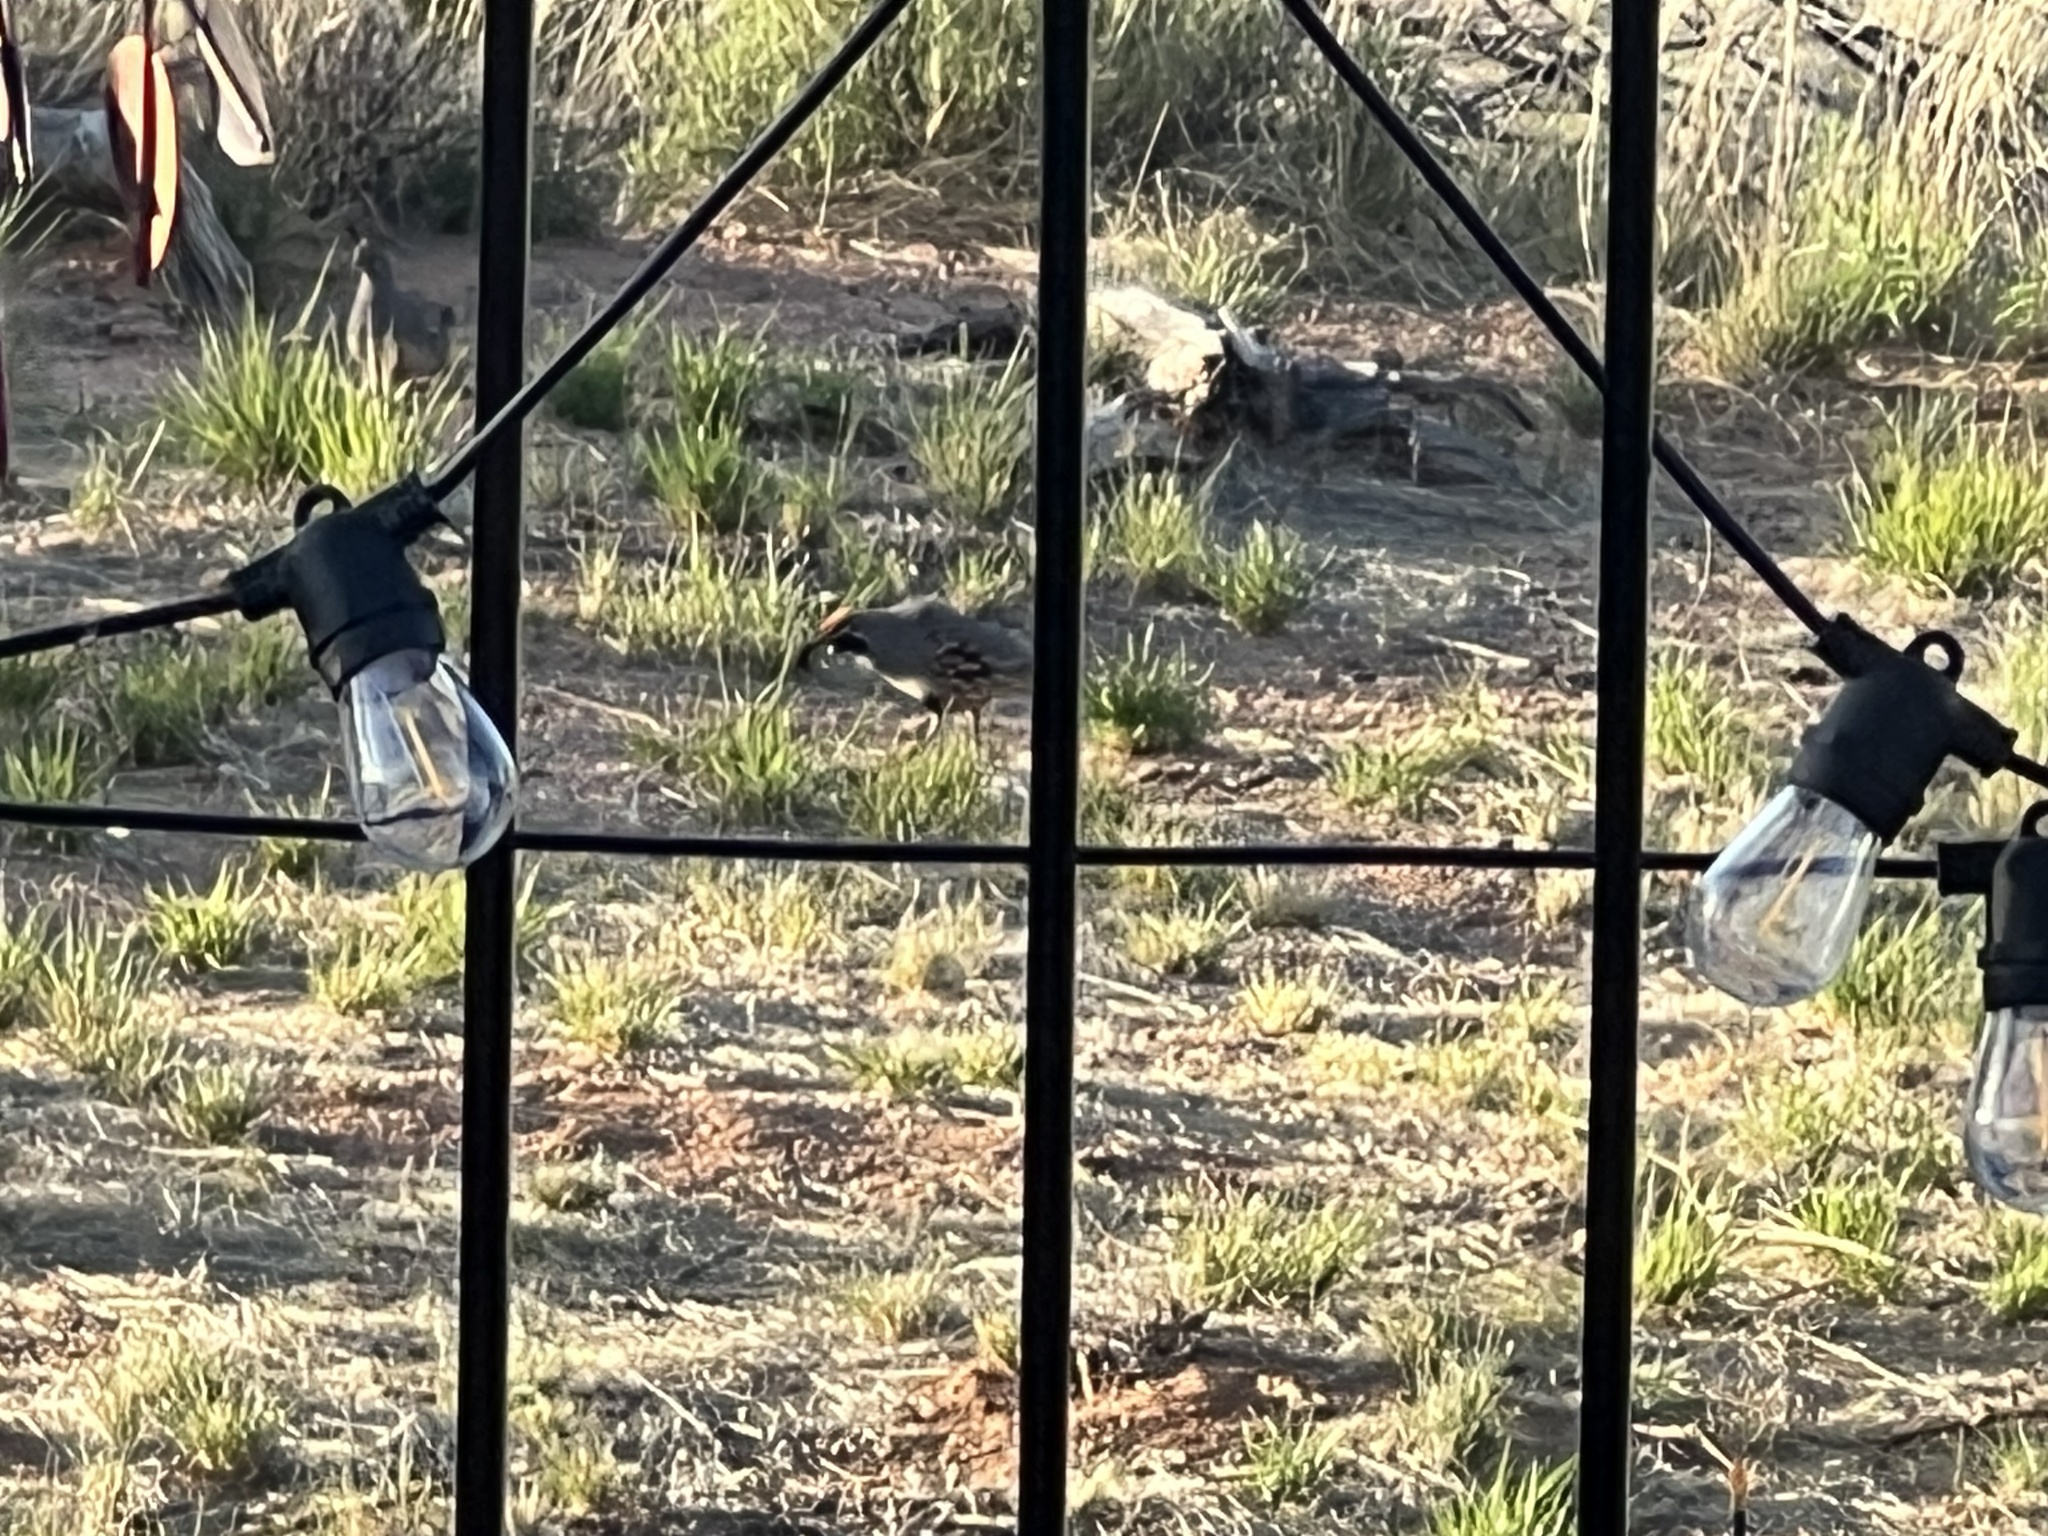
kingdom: Animalia
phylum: Chordata
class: Aves
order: Galliformes
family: Odontophoridae
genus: Callipepla
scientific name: Callipepla gambelii
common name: Gambel's quail
